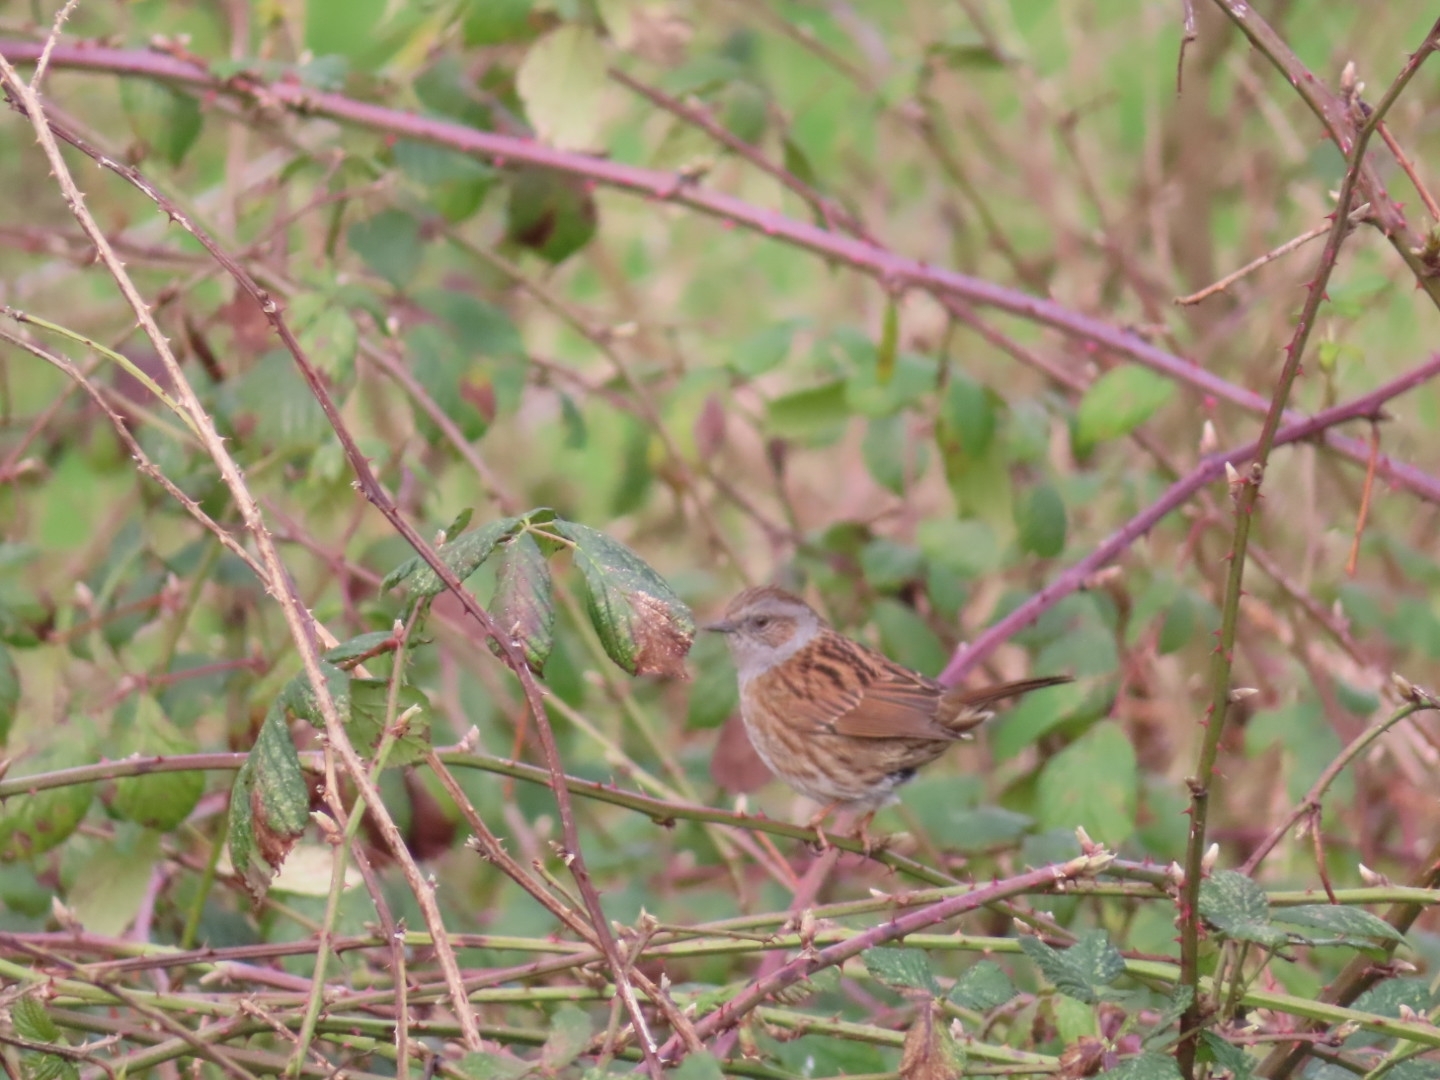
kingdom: Animalia
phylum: Chordata
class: Aves
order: Passeriformes
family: Prunellidae
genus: Prunella
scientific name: Prunella modularis
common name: Dunnock
